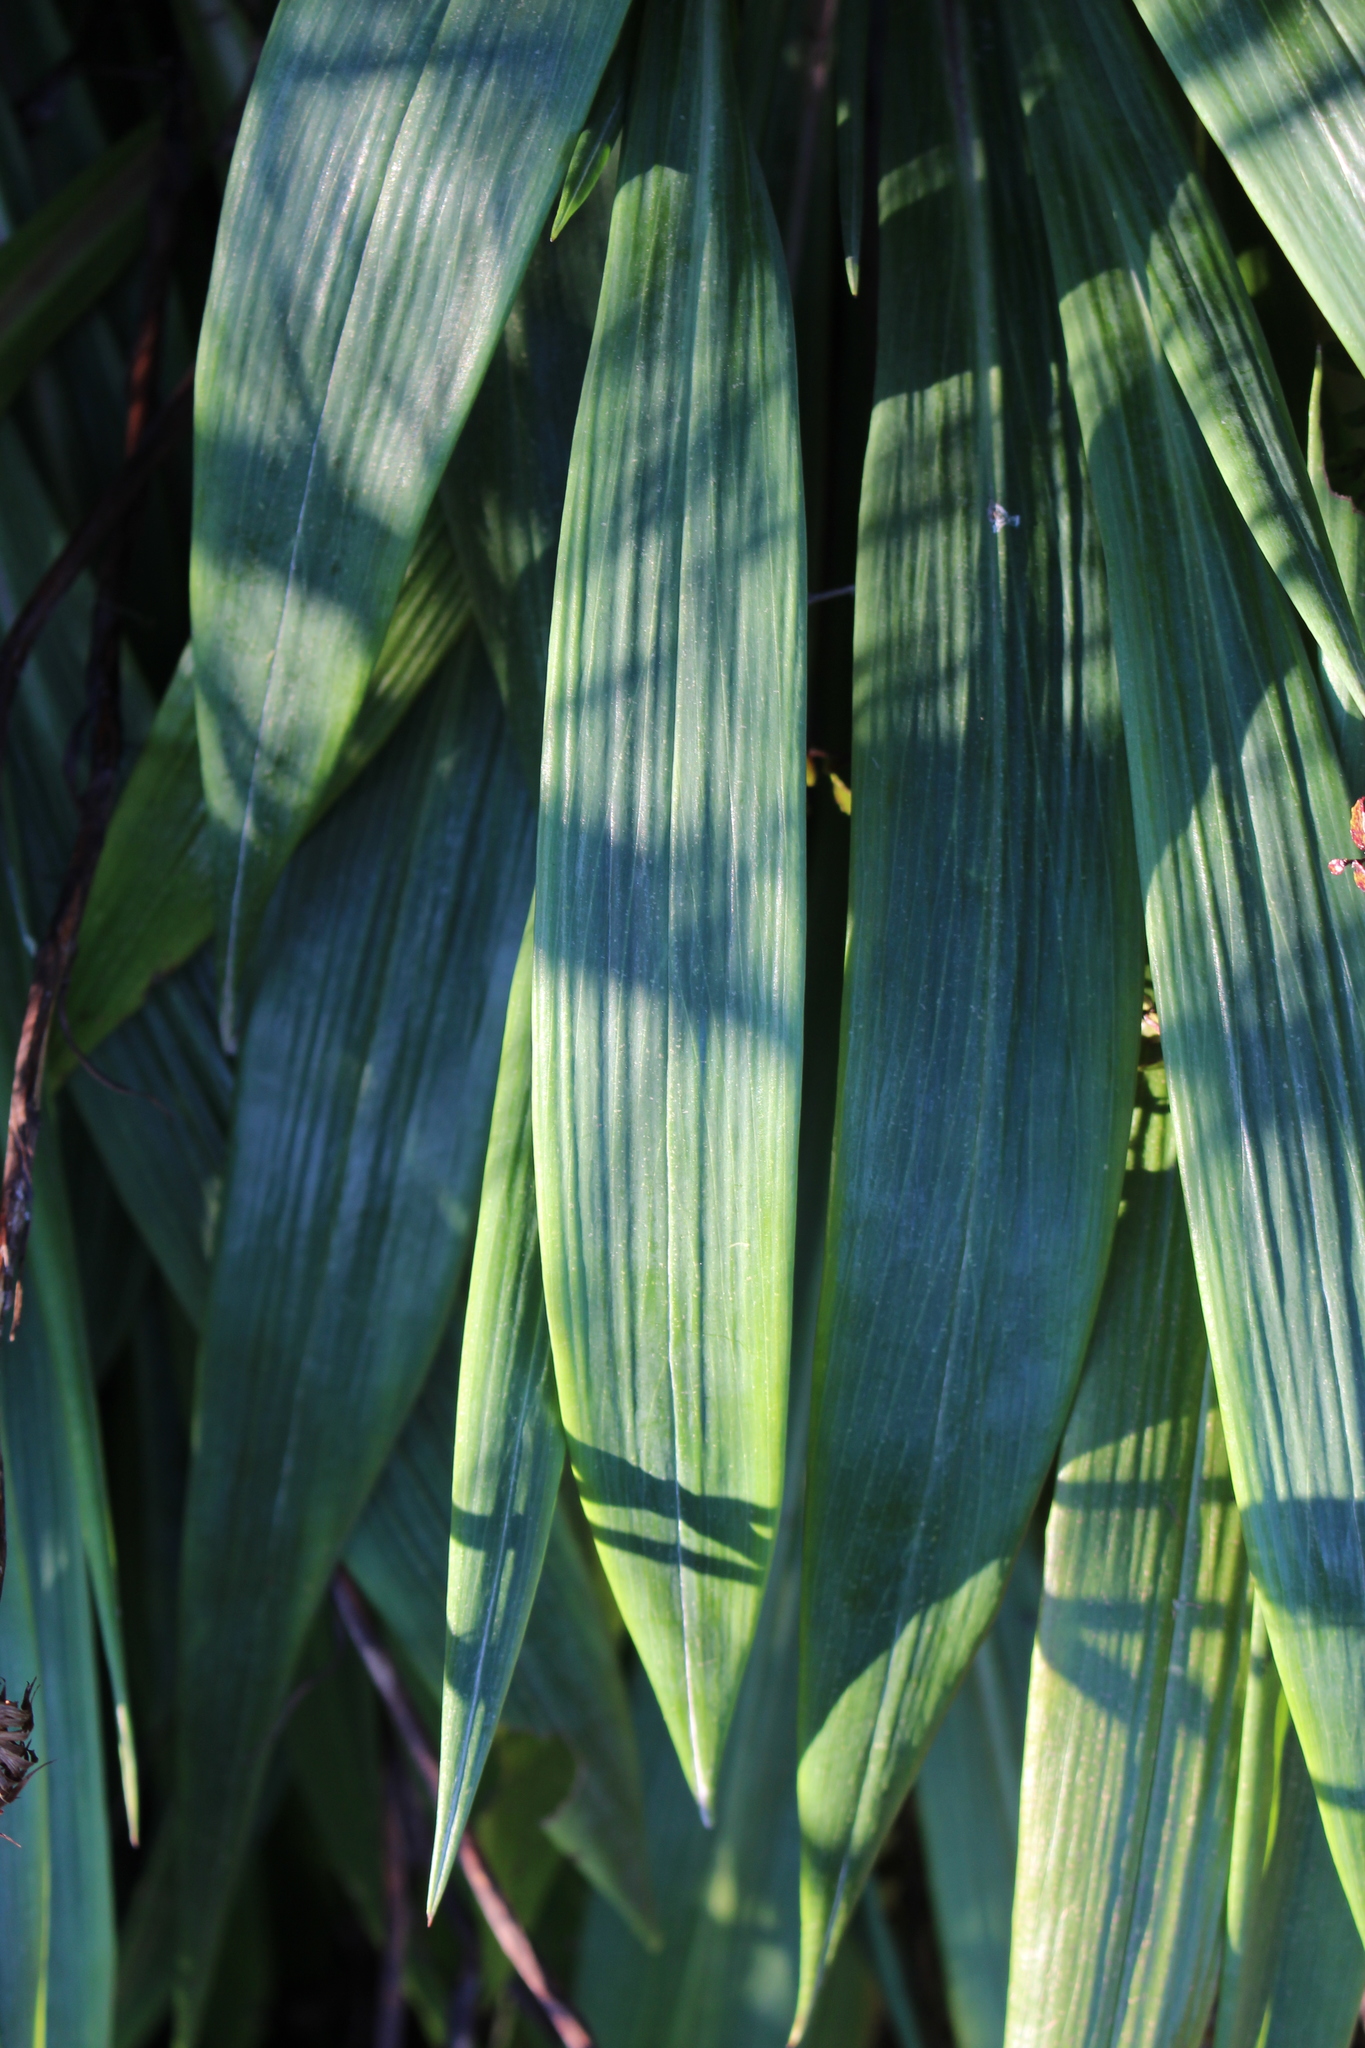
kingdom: Plantae
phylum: Tracheophyta
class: Magnoliopsida
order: Asterales
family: Asteraceae
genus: Celmisia
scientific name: Celmisia mackaui
